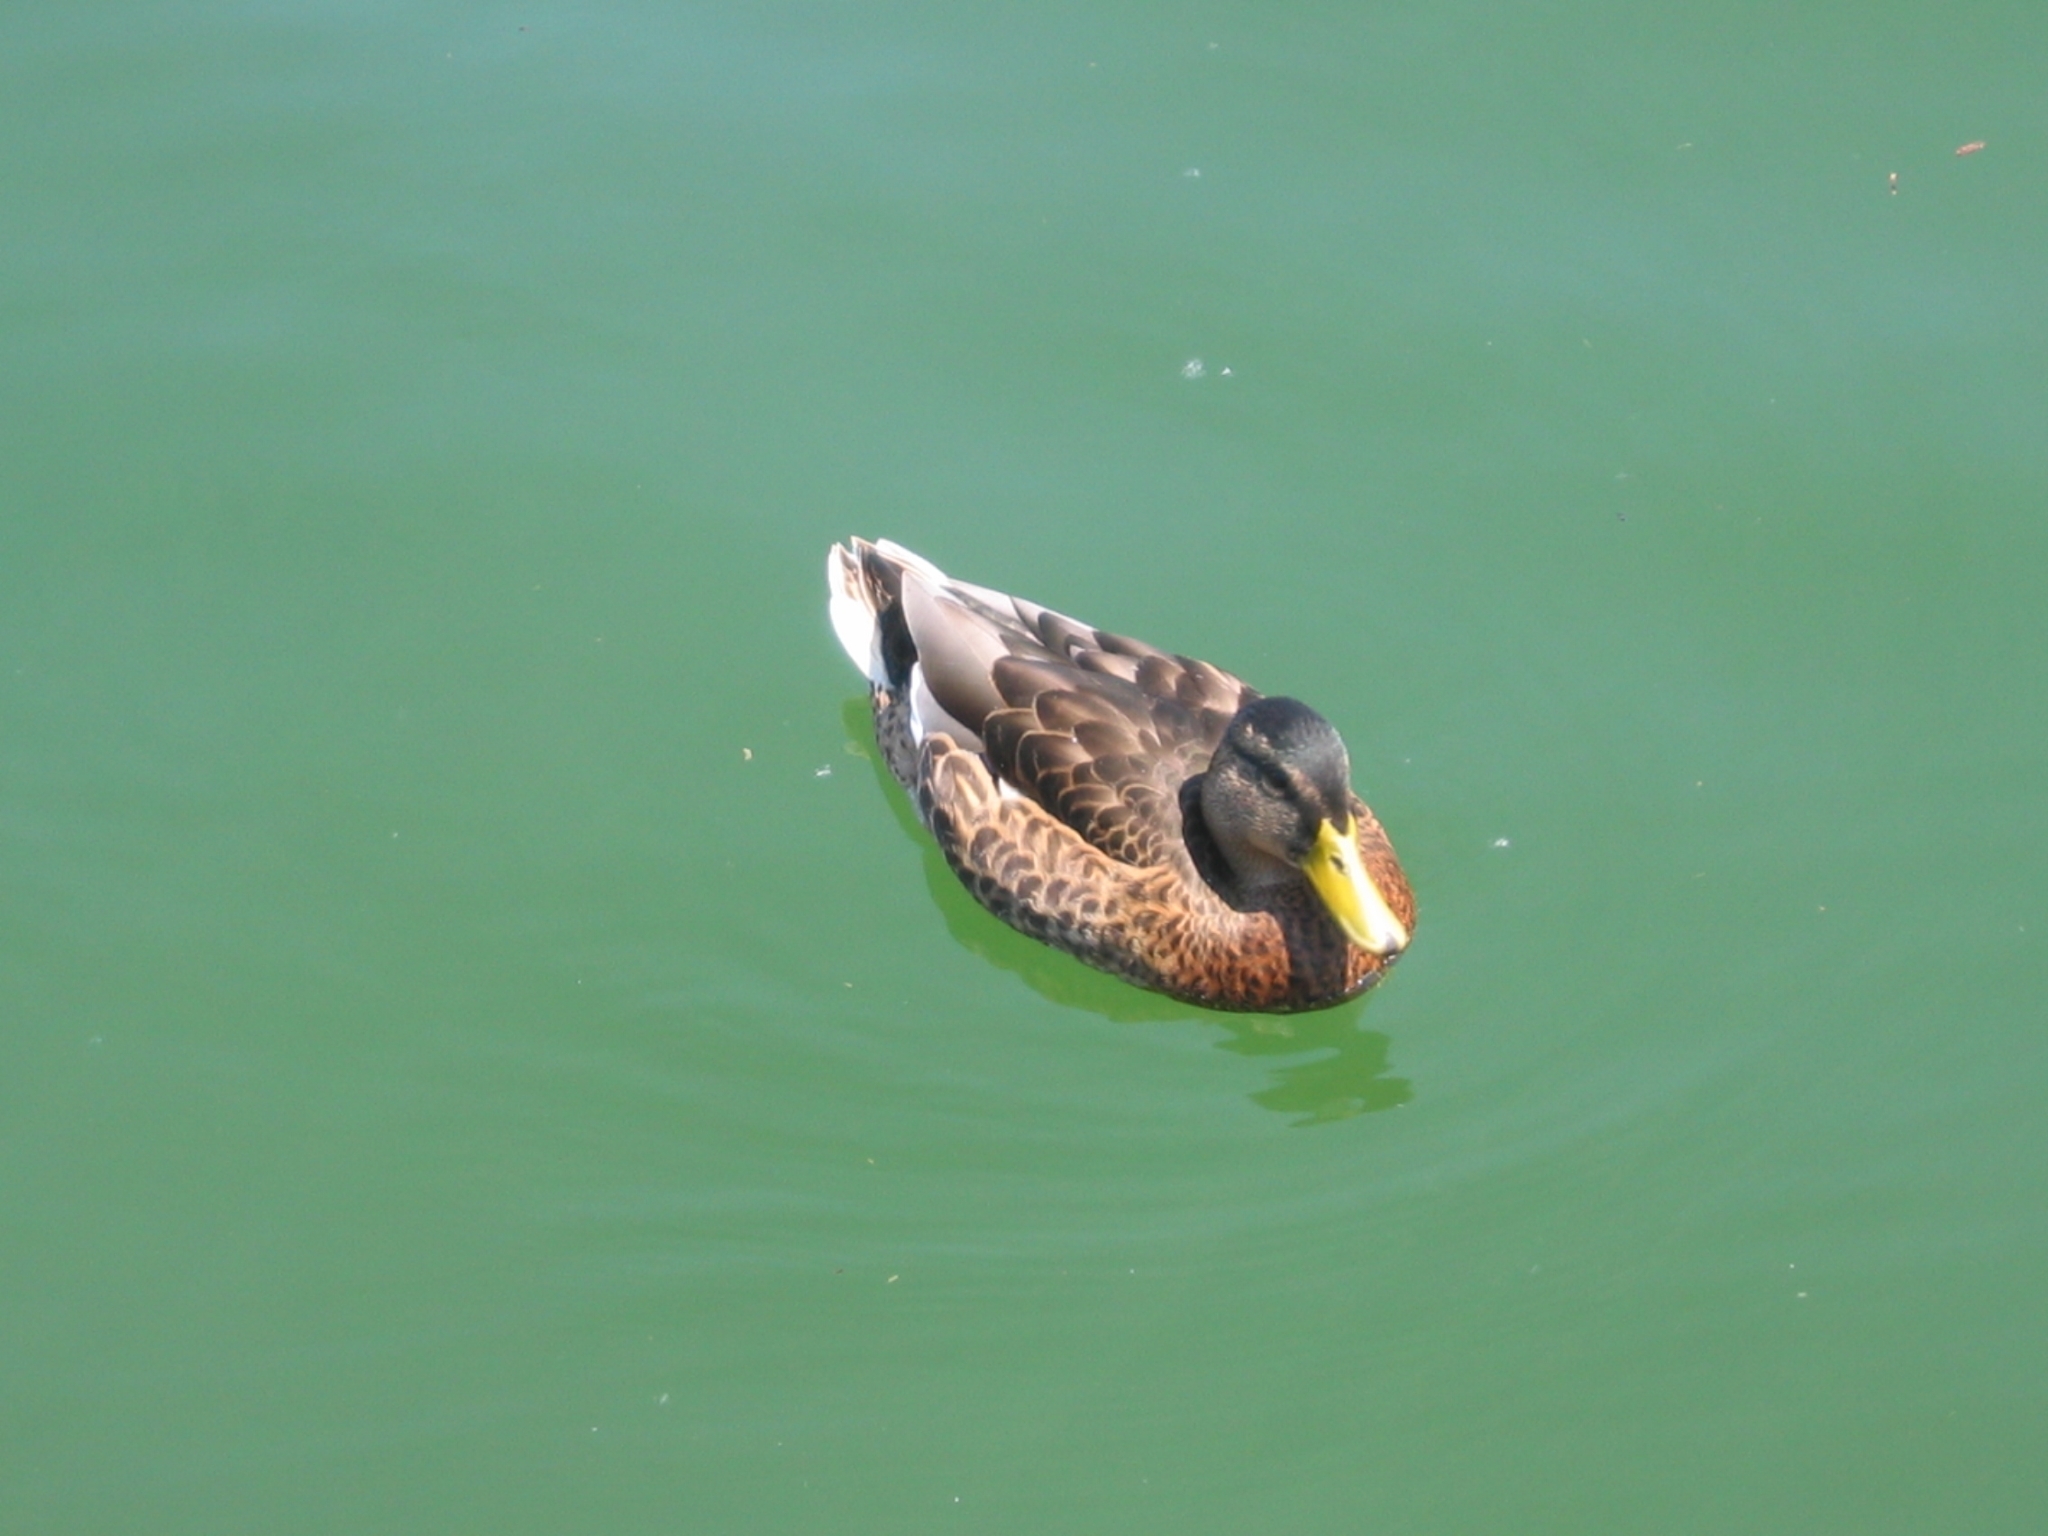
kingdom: Animalia
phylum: Chordata
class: Aves
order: Anseriformes
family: Anatidae
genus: Anas
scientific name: Anas platyrhynchos
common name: Mallard
